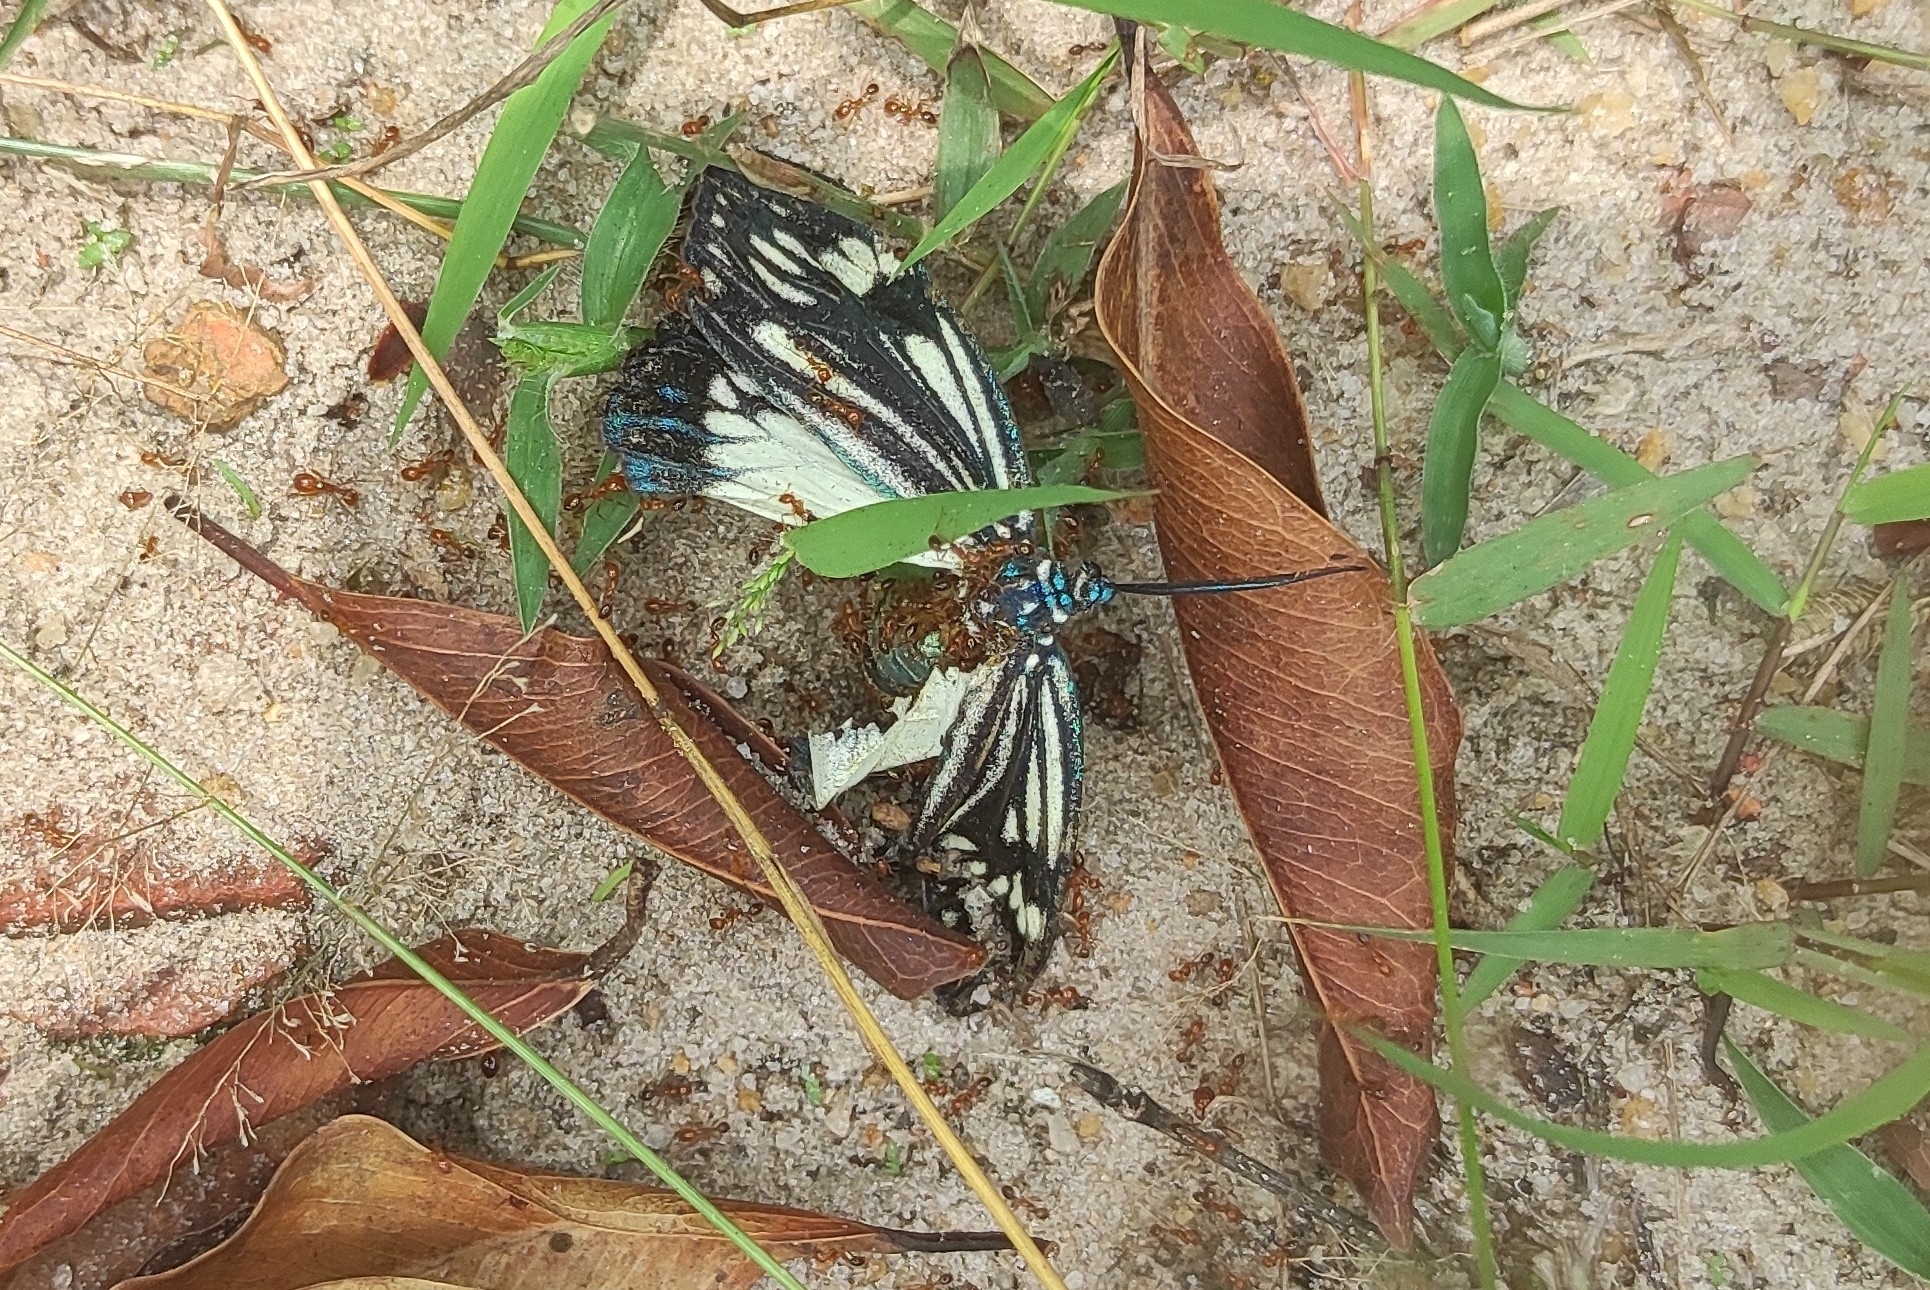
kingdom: Animalia
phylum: Arthropoda
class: Insecta
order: Lepidoptera
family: Zygaenidae
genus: Cyclosia
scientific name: Cyclosia
